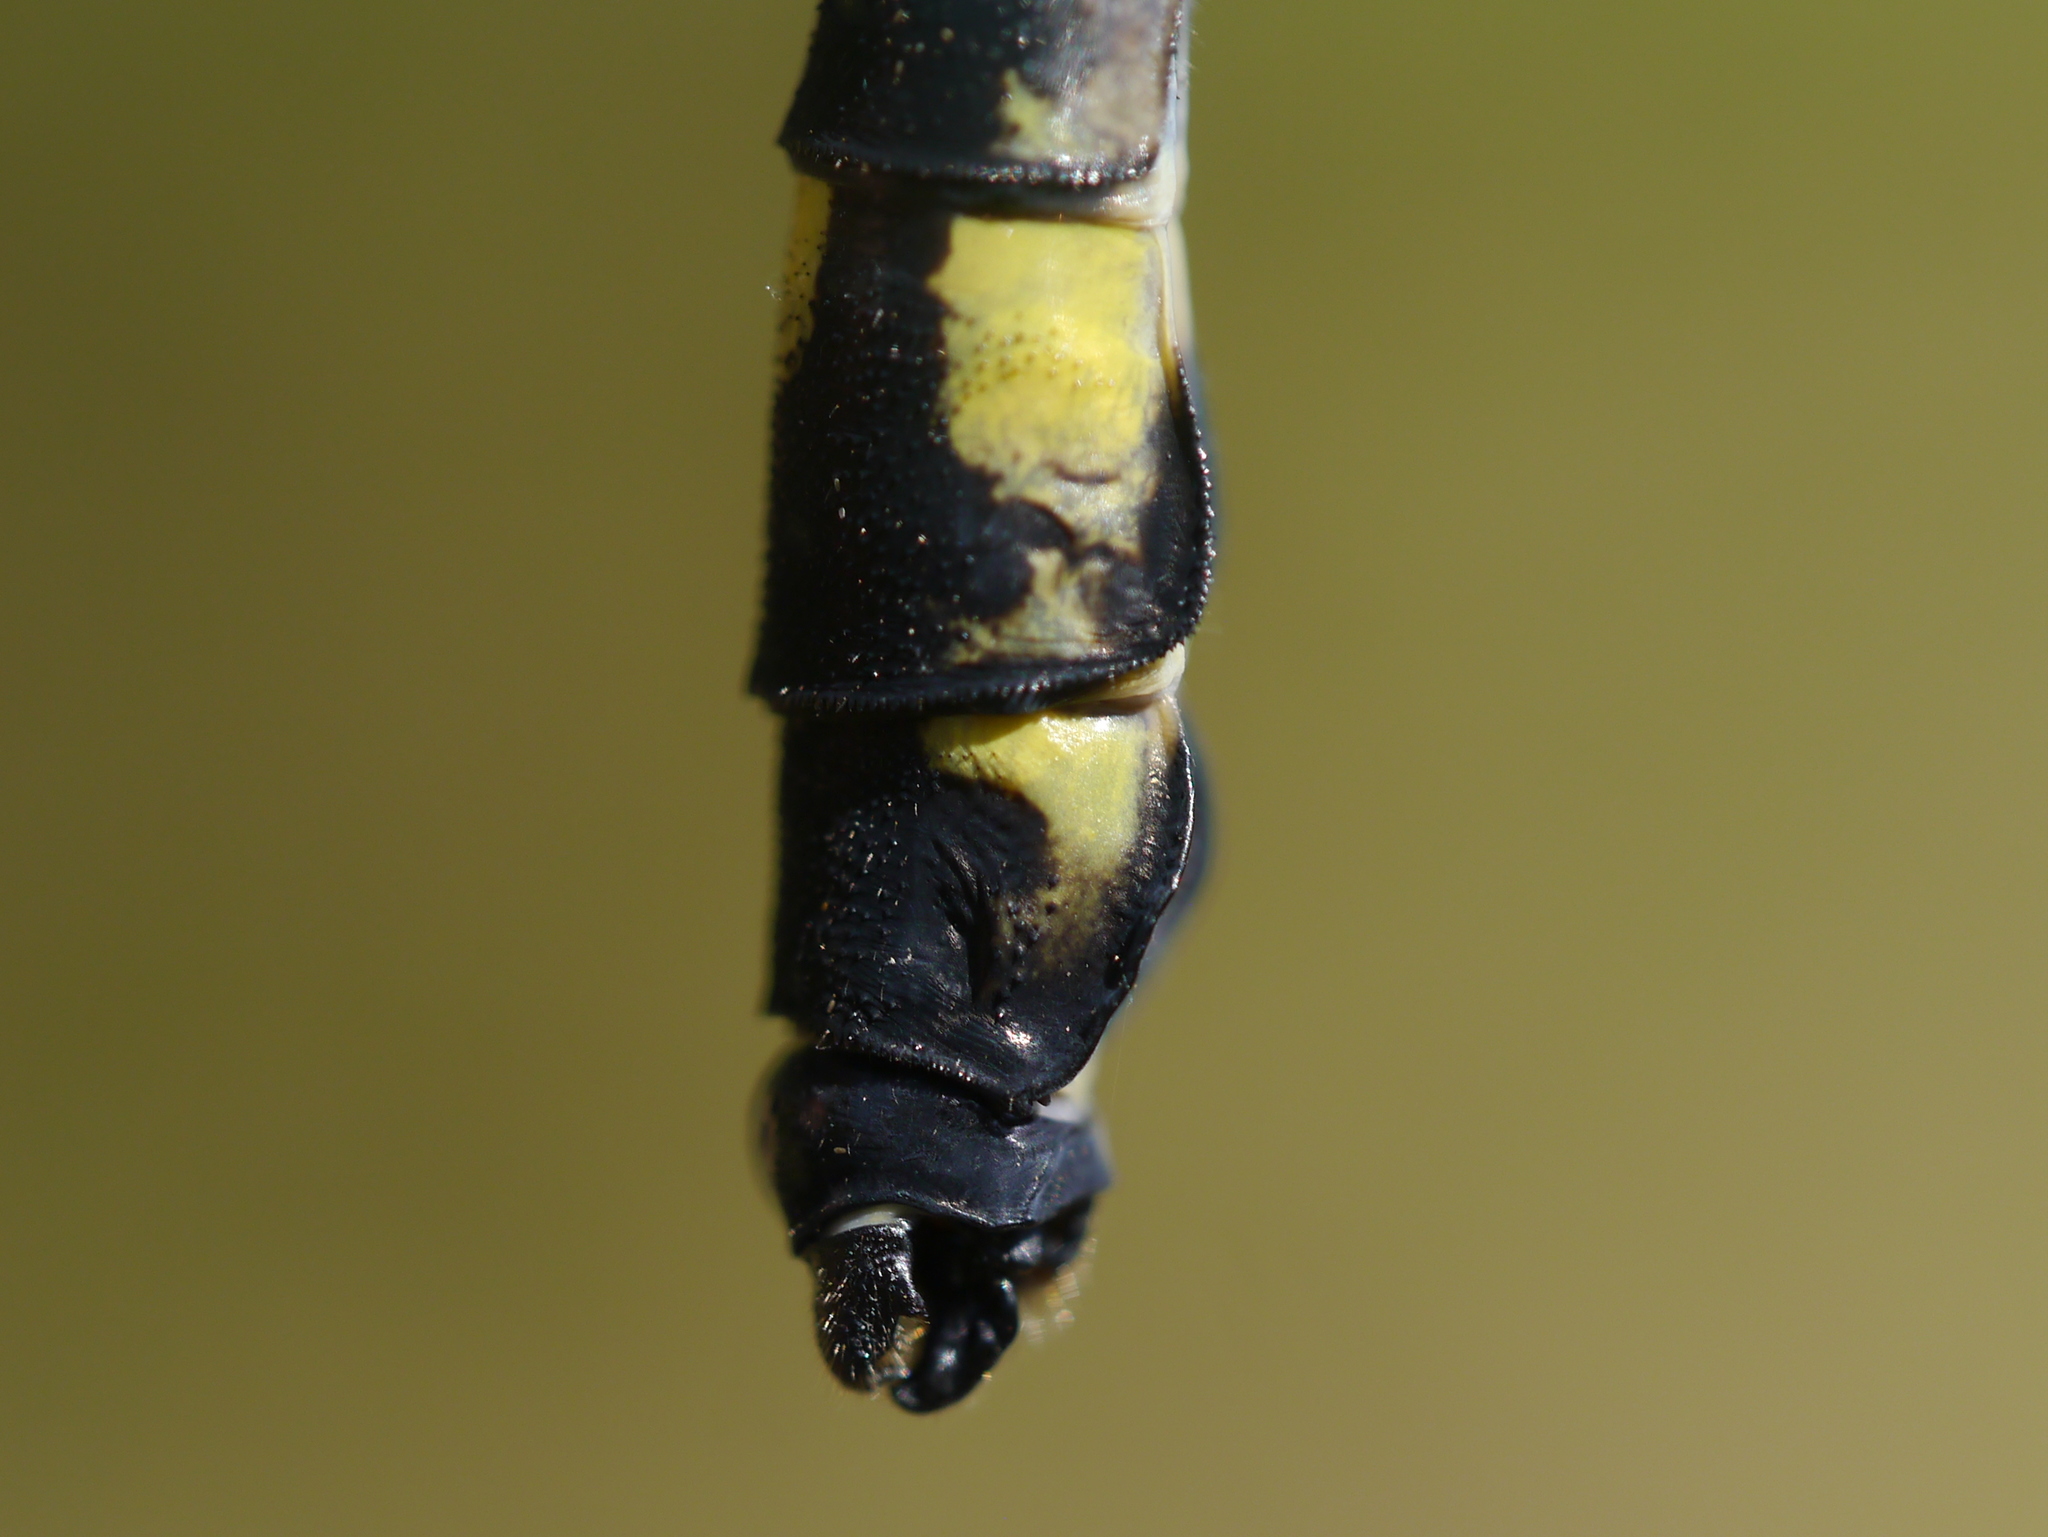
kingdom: Animalia
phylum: Arthropoda
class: Insecta
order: Odonata
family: Gomphidae
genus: Hagenius
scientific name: Hagenius brevistylus
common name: Dragonhunter
